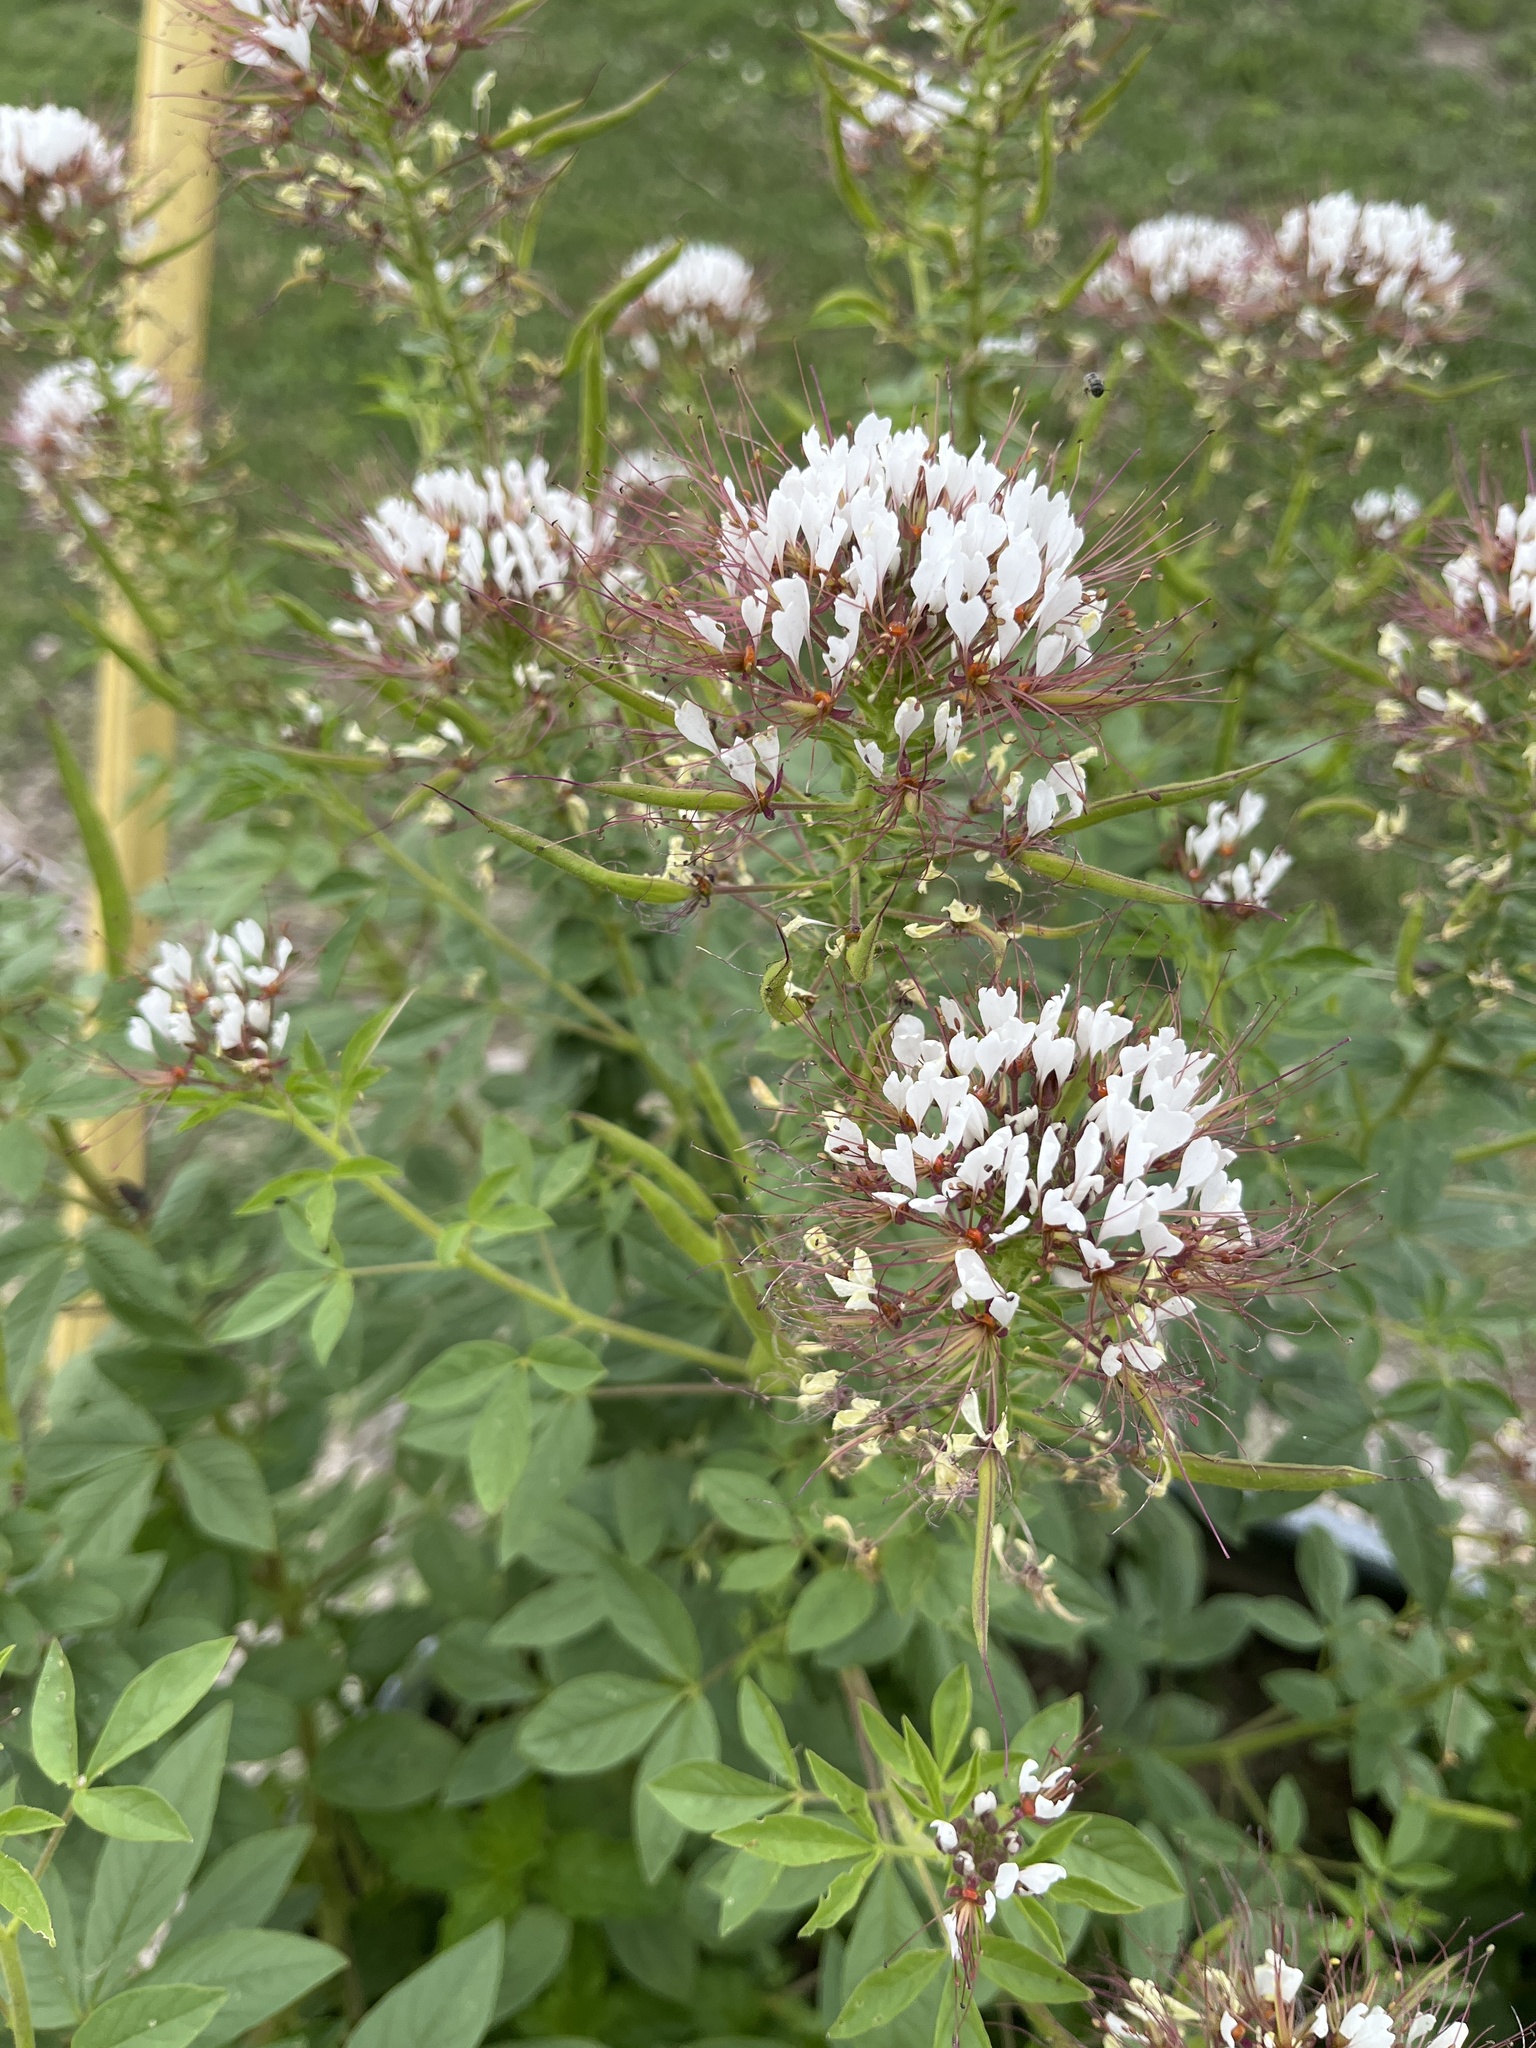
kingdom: Plantae
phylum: Tracheophyta
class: Magnoliopsida
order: Brassicales
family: Cleomaceae
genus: Polanisia
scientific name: Polanisia dodecandra
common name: Clammyweed
